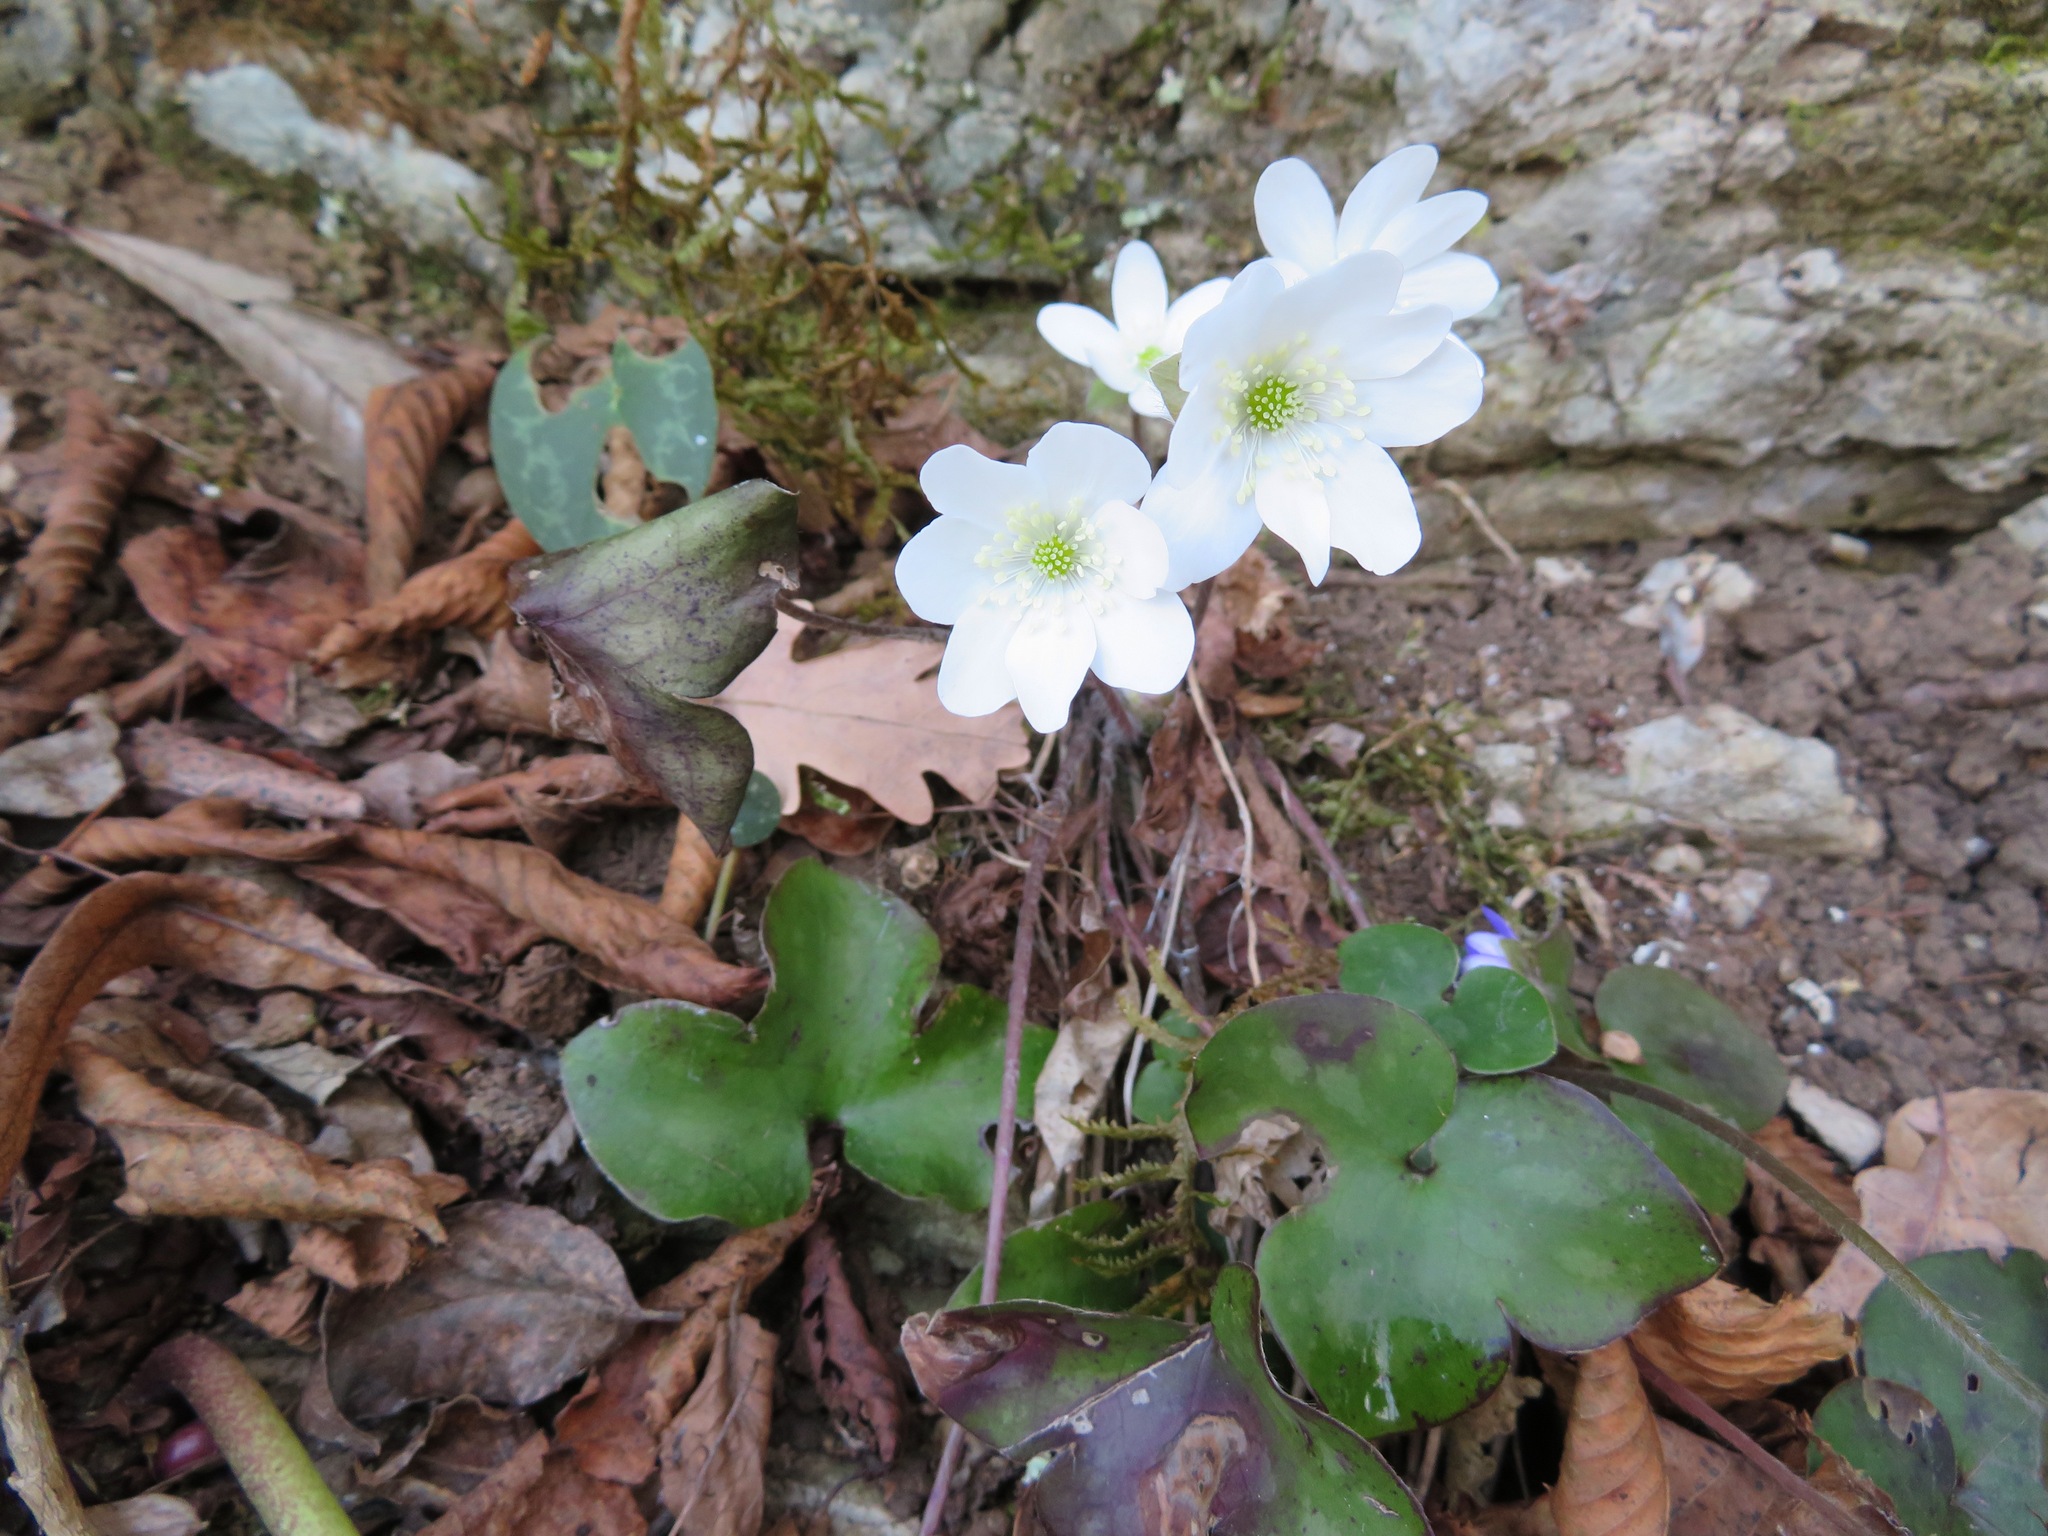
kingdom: Plantae
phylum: Tracheophyta
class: Magnoliopsida
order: Ranunculales
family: Ranunculaceae
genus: Hepatica
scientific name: Hepatica nobilis
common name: Liverleaf
